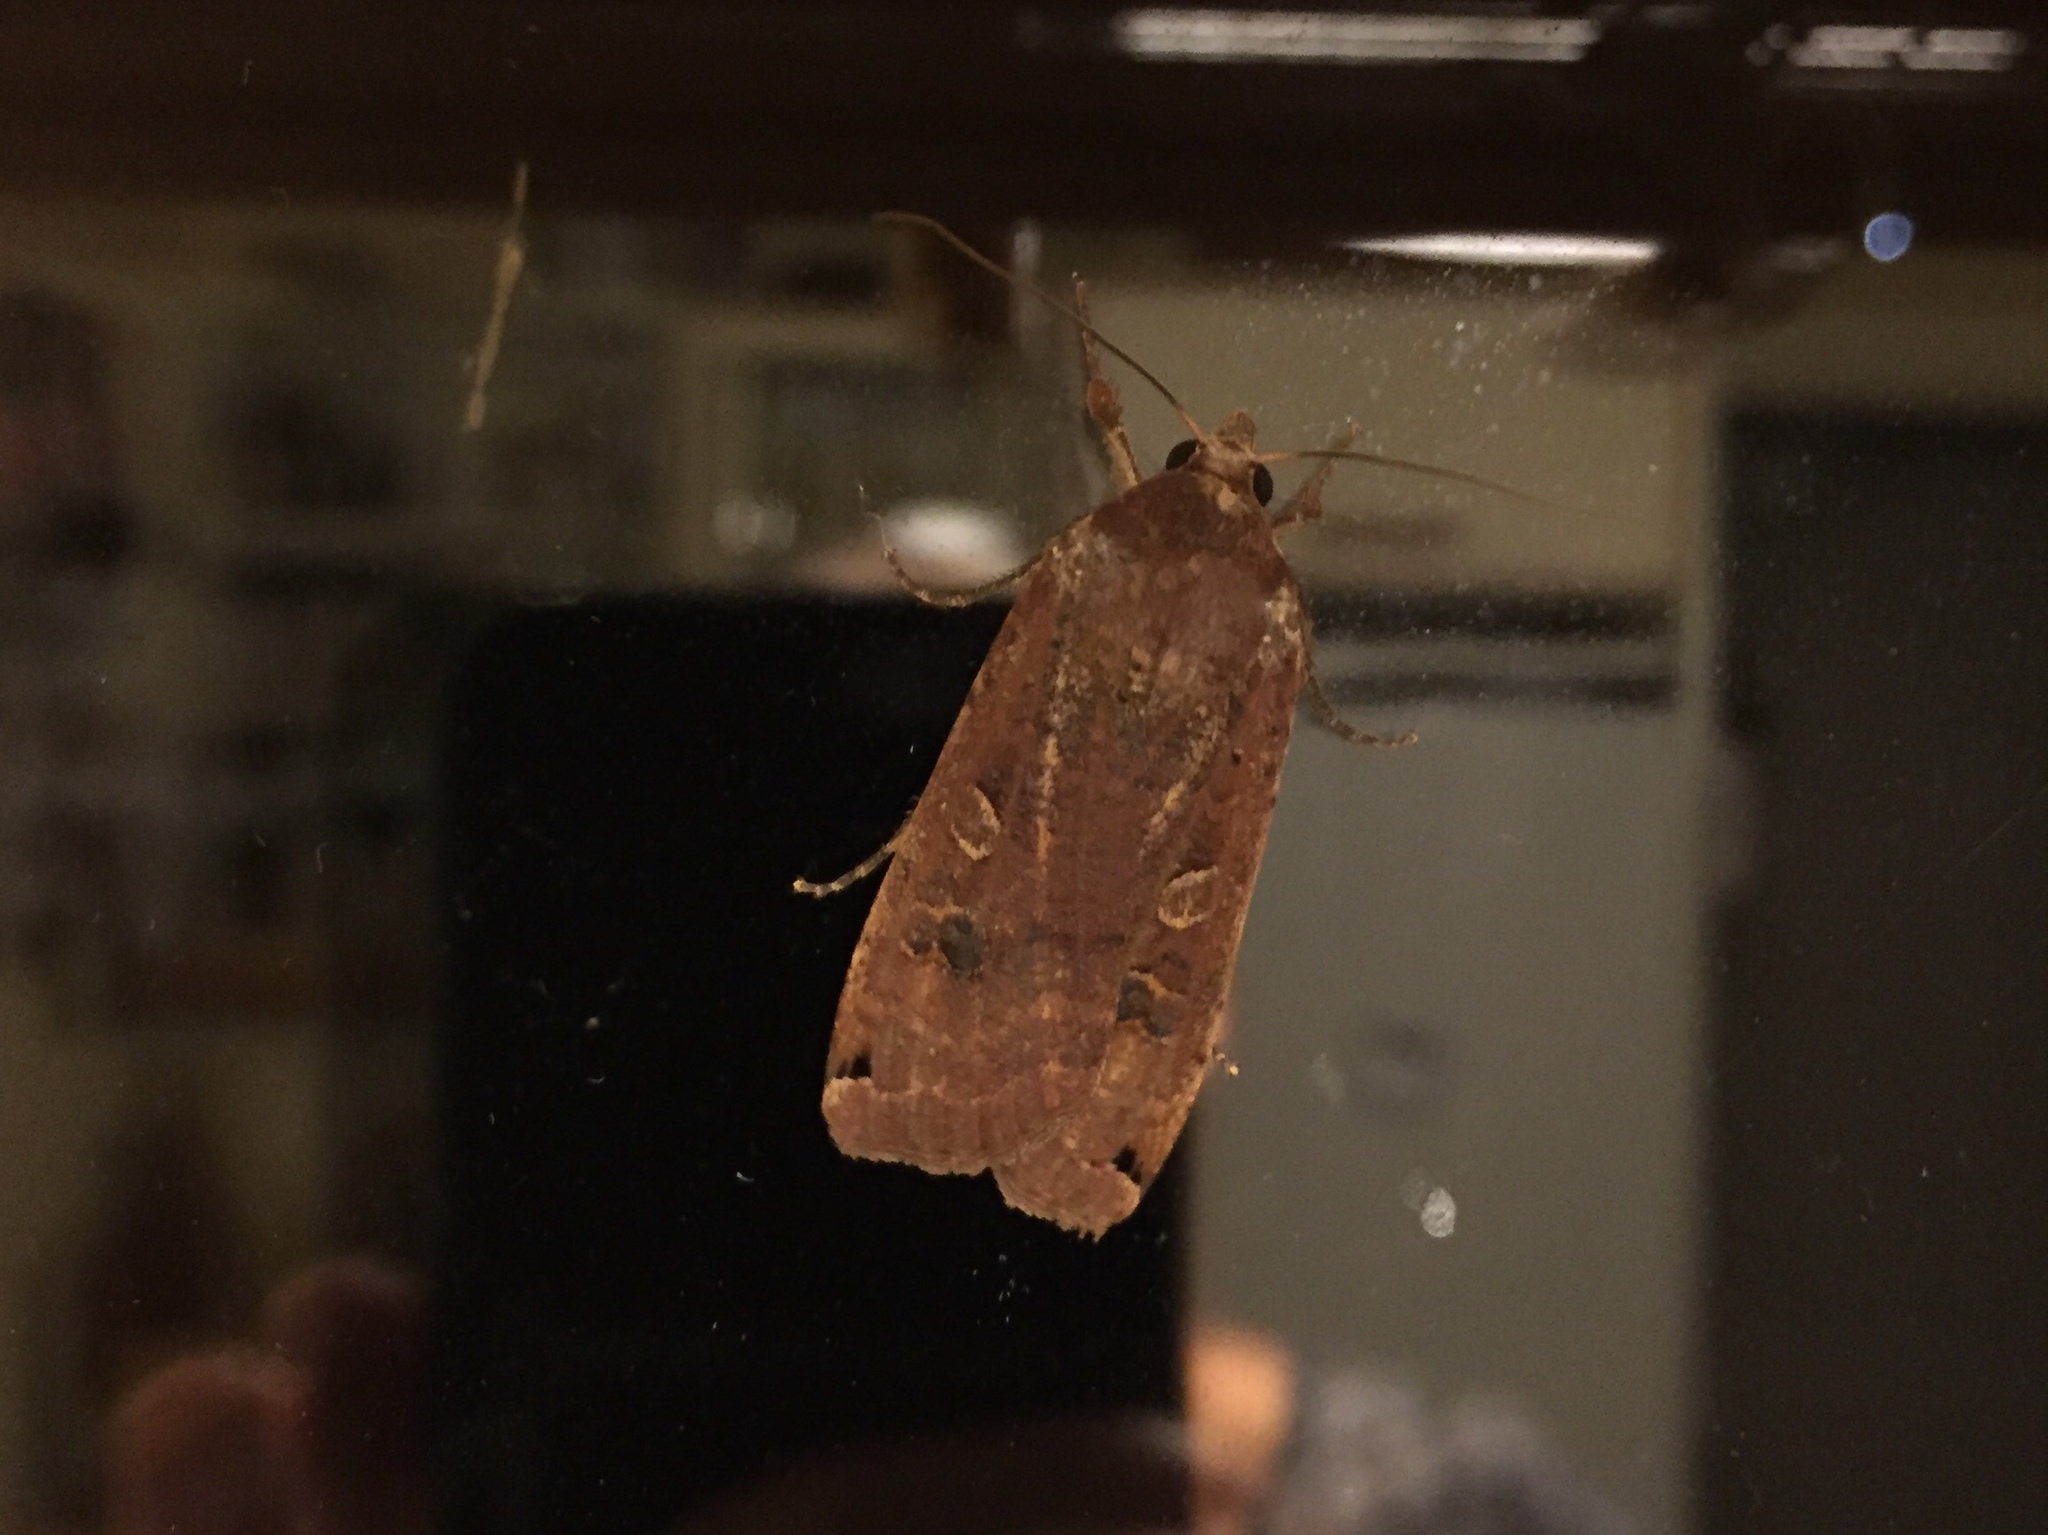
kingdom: Animalia
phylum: Arthropoda
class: Insecta
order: Lepidoptera
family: Noctuidae
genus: Noctua
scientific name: Noctua pronuba
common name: Large yellow underwing
